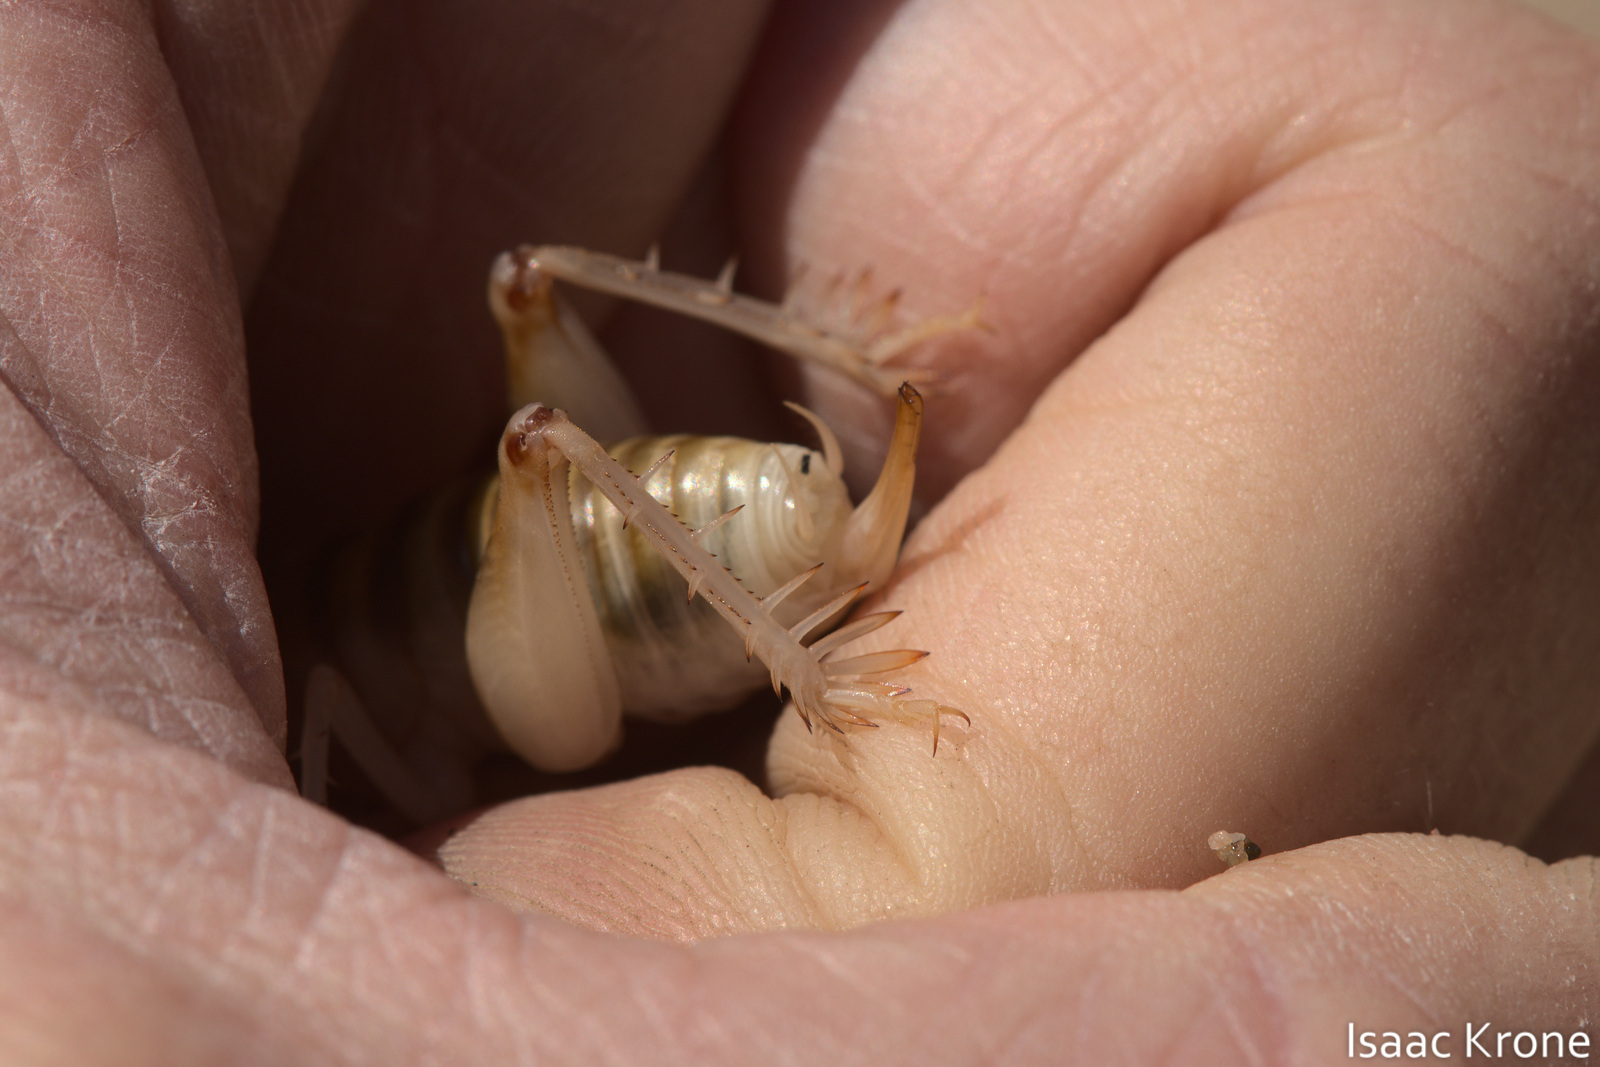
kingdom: Animalia
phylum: Arthropoda
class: Insecta
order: Orthoptera
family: Rhaphidophoridae
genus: Rhachocnemis
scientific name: Rhachocnemis validus
